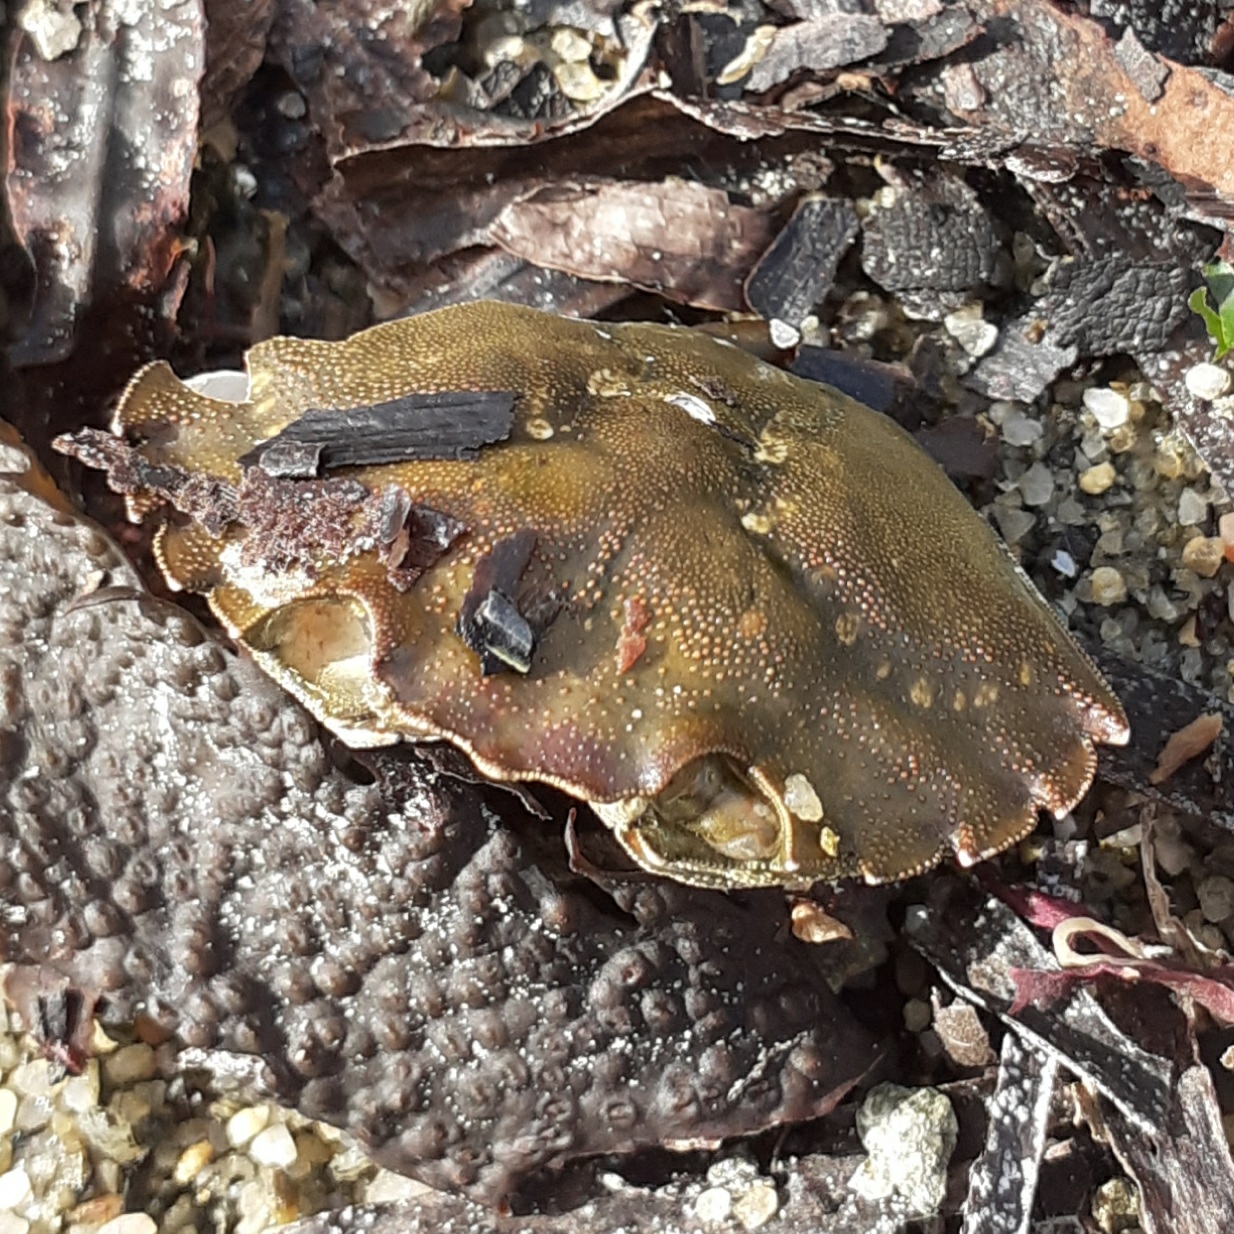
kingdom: Animalia
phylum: Arthropoda
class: Malacostraca
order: Decapoda
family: Carcinidae
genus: Carcinus
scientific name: Carcinus maenas
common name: European green crab
